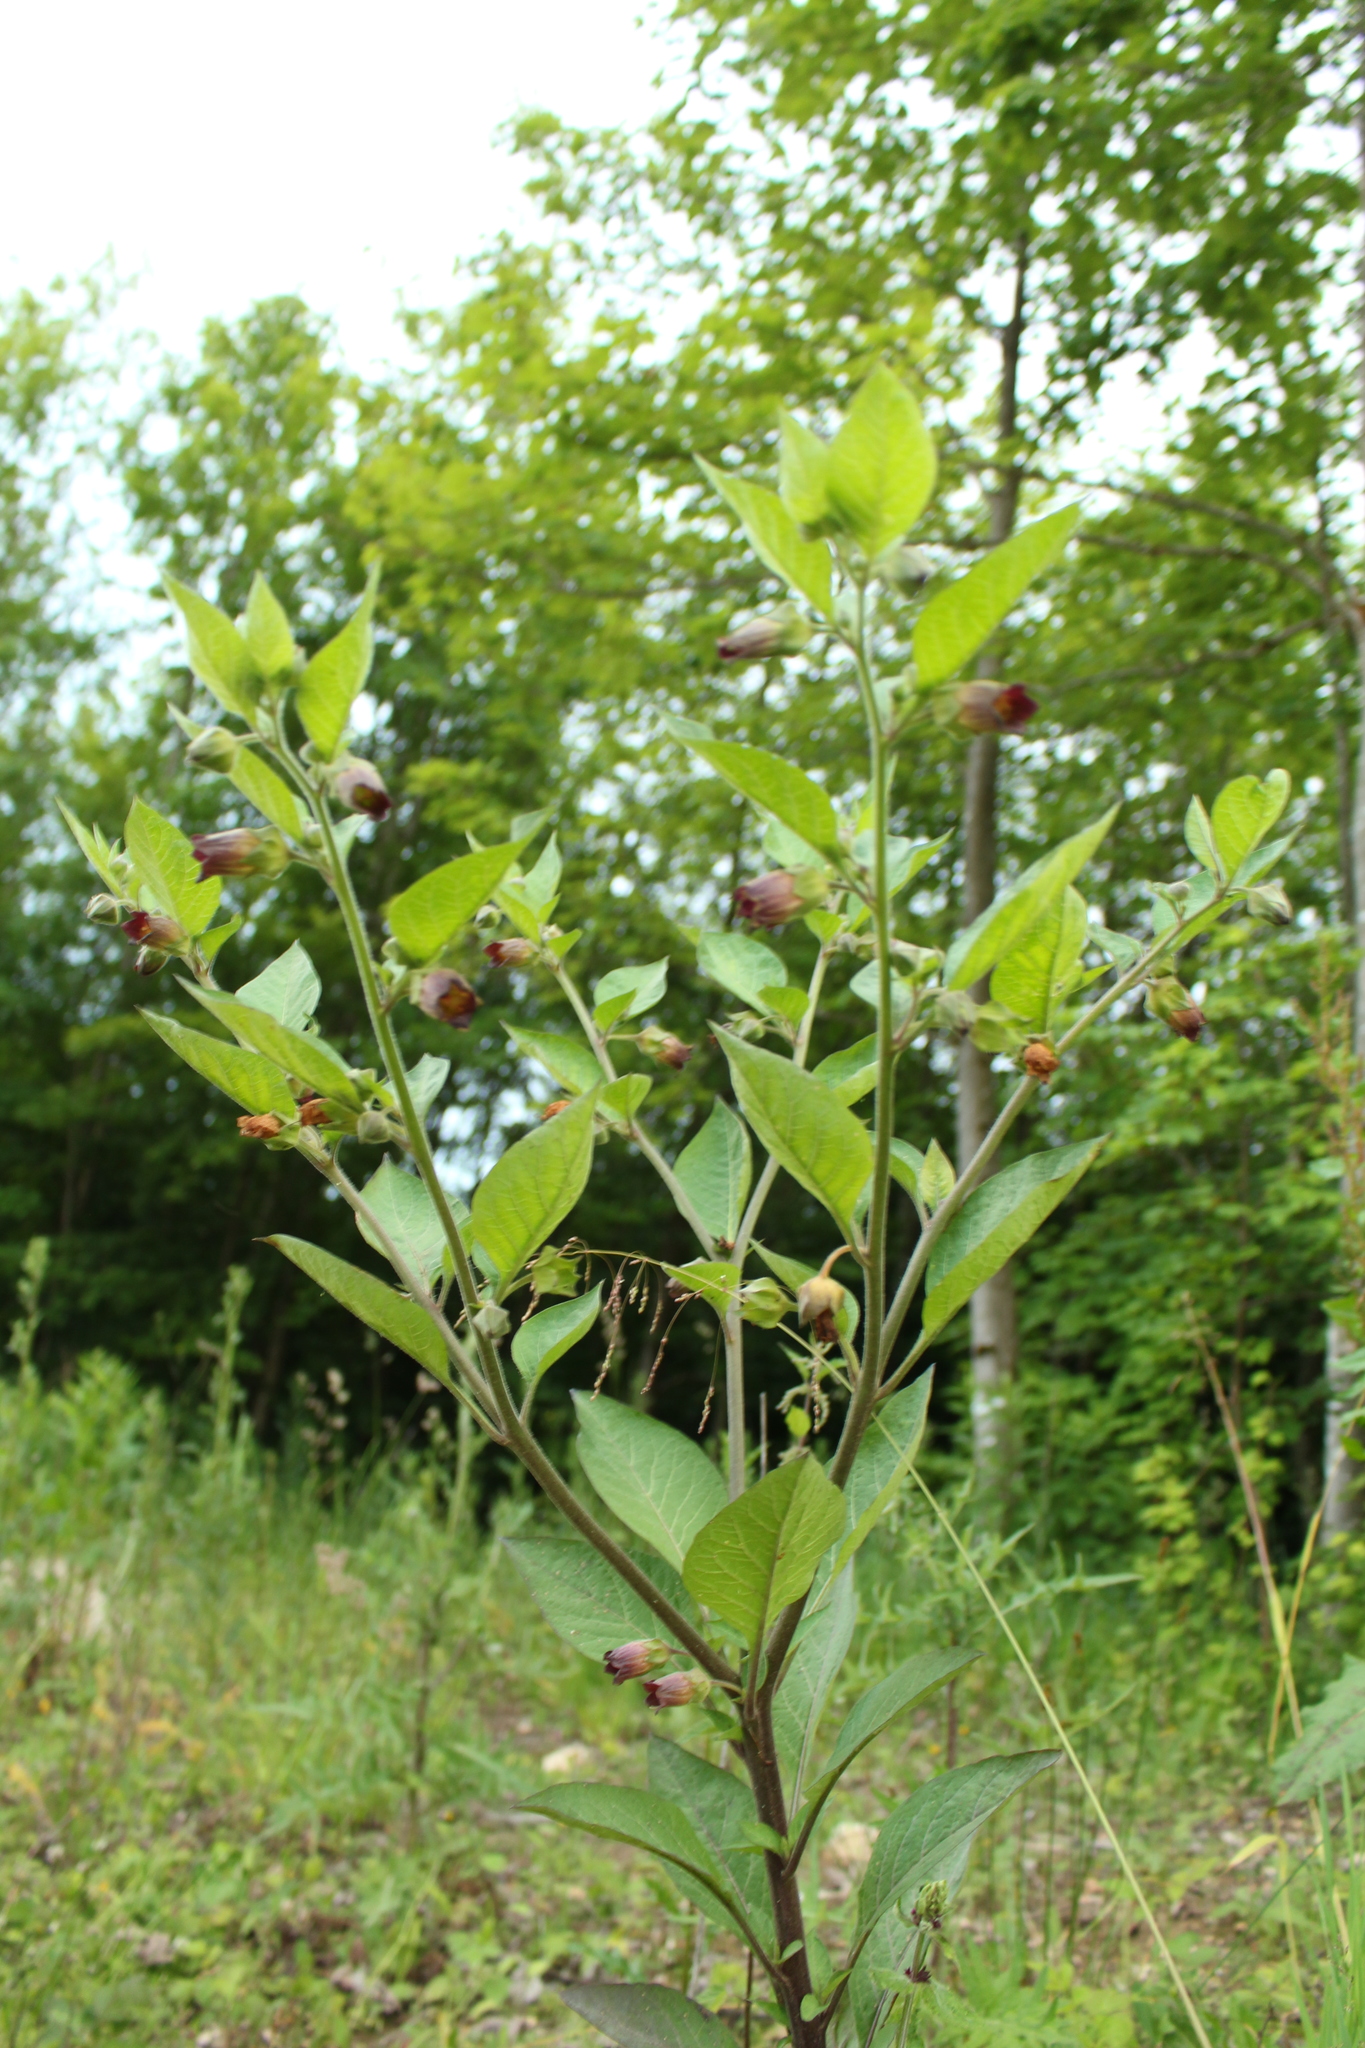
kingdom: Plantae
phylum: Tracheophyta
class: Magnoliopsida
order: Solanales
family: Solanaceae
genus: Atropa
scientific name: Atropa belladonna
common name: Deadly nightshade
